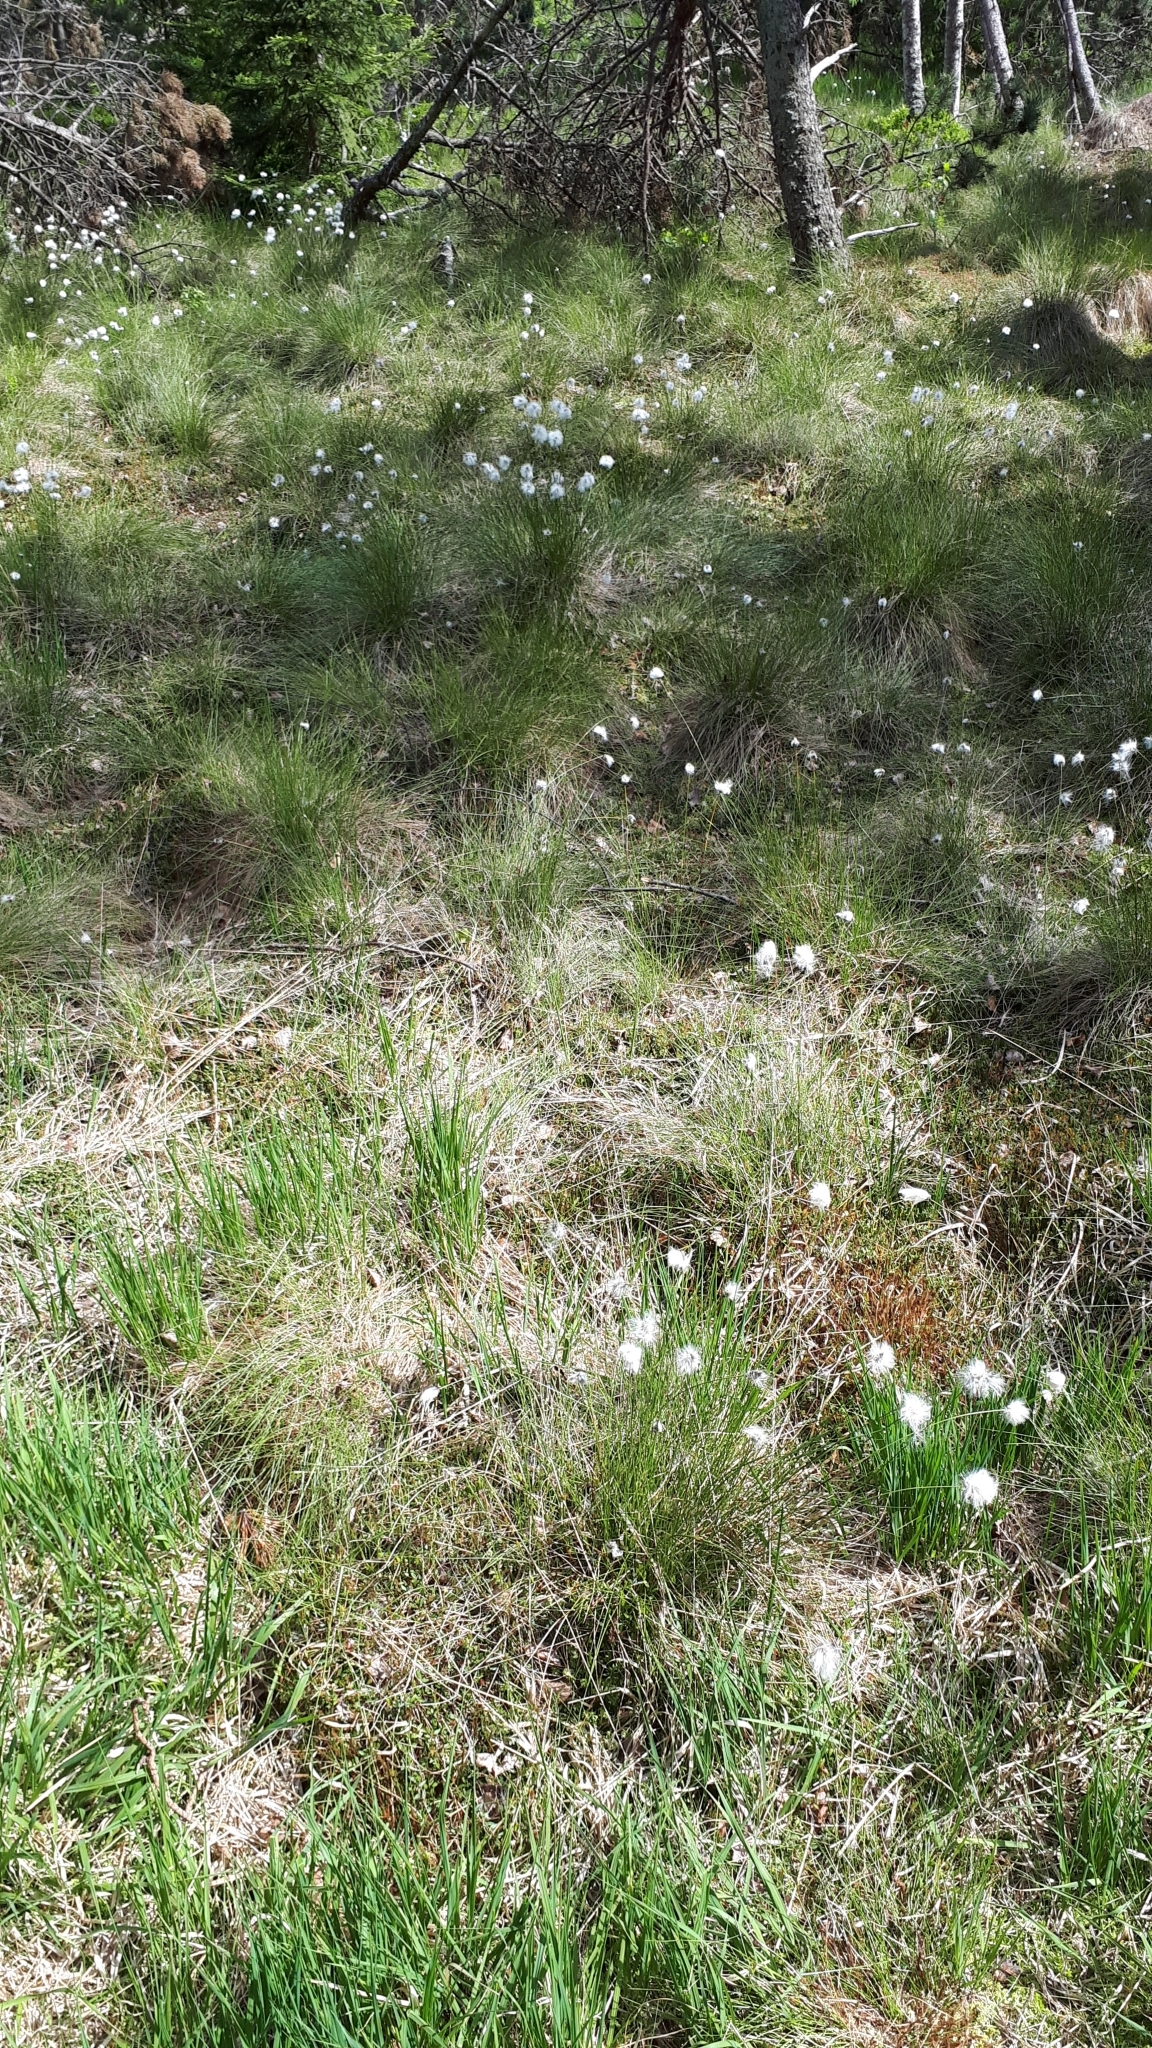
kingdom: Plantae
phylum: Tracheophyta
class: Liliopsida
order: Poales
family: Cyperaceae
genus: Eriophorum
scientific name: Eriophorum vaginatum
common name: Hare's-tail cottongrass
